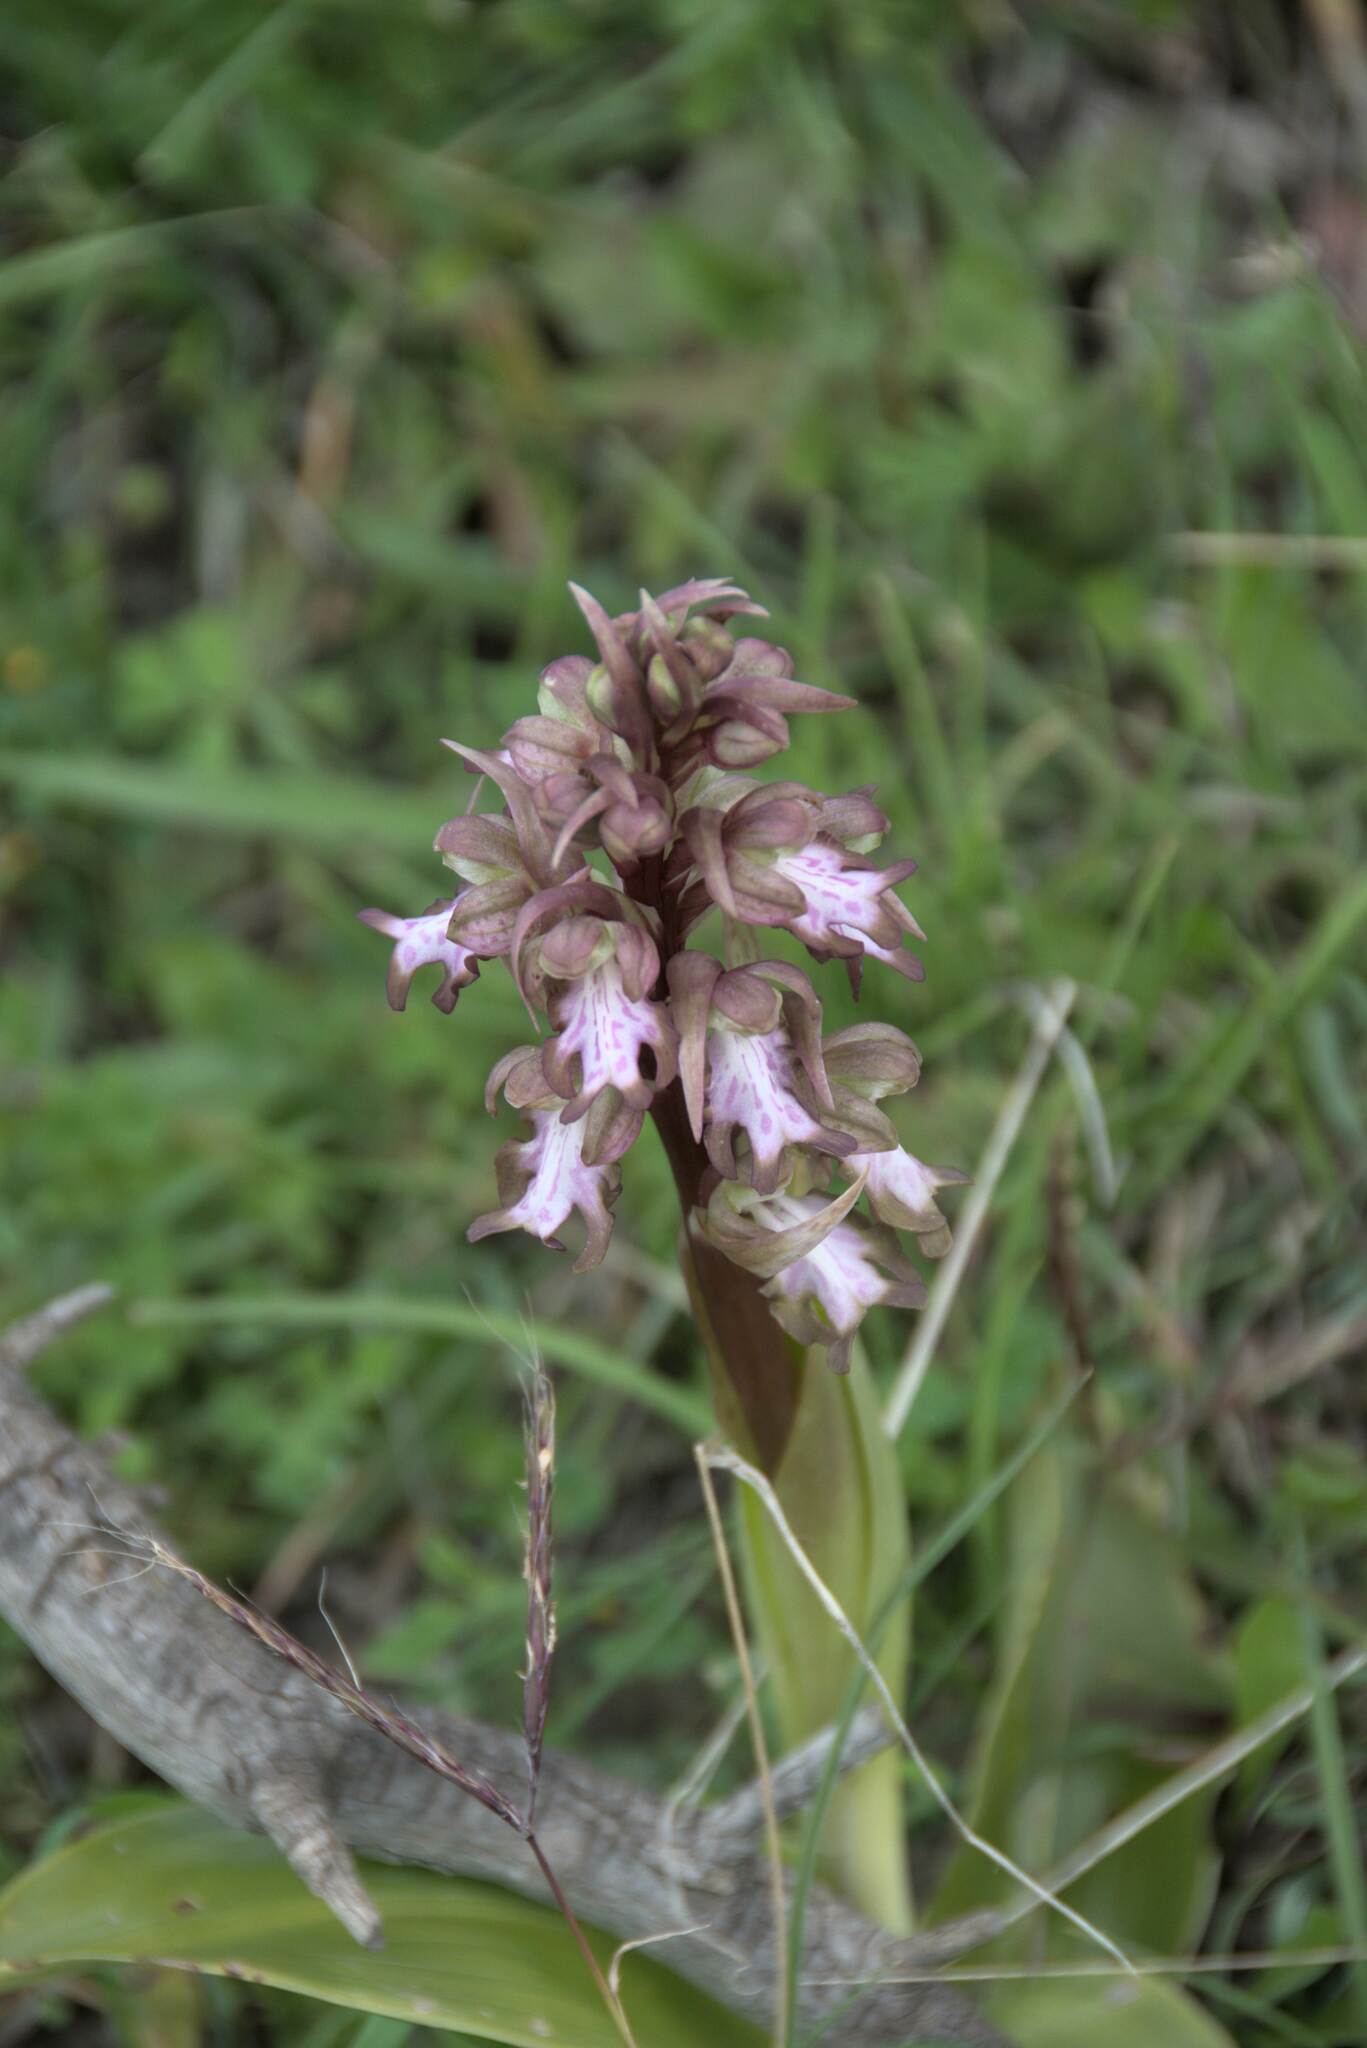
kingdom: Plantae
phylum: Tracheophyta
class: Liliopsida
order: Asparagales
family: Orchidaceae
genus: Himantoglossum
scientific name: Himantoglossum robertianum
